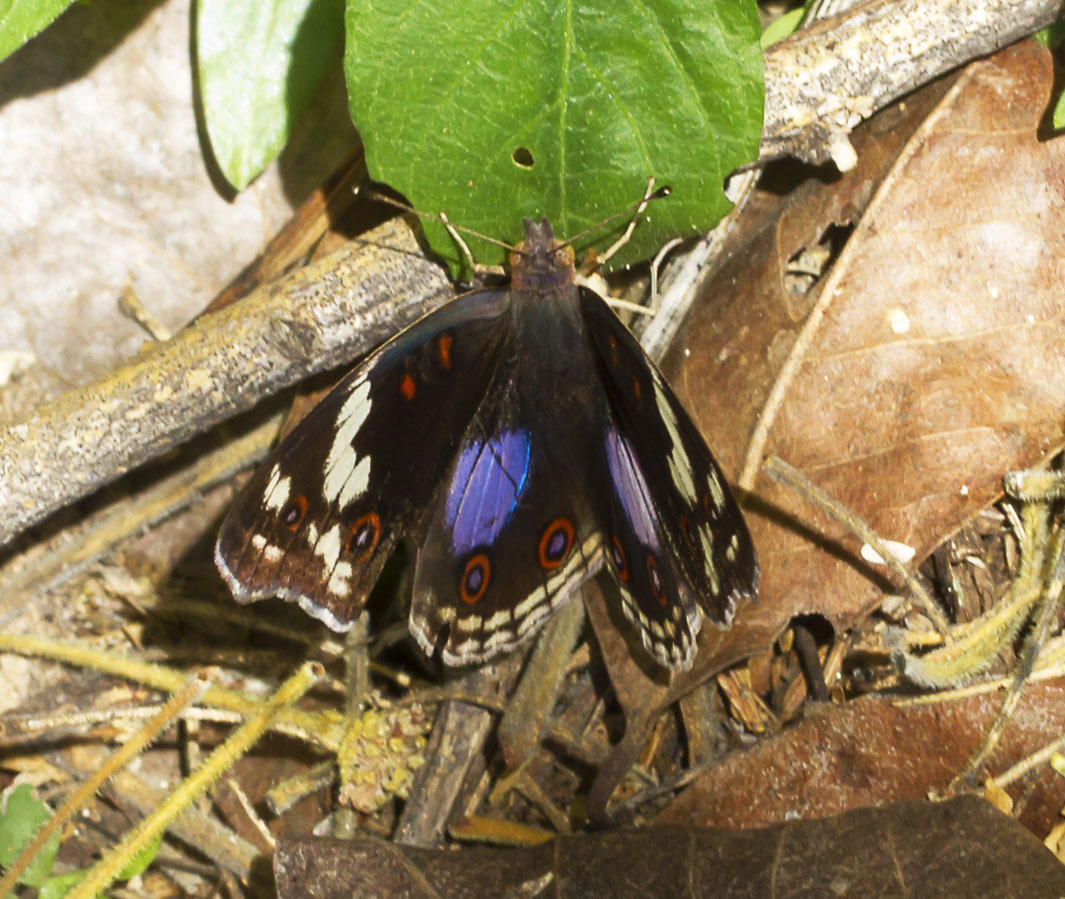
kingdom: Animalia
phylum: Arthropoda
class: Insecta
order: Lepidoptera
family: Nymphalidae
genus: Junonia
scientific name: Junonia oenone
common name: Dark blue pansy
